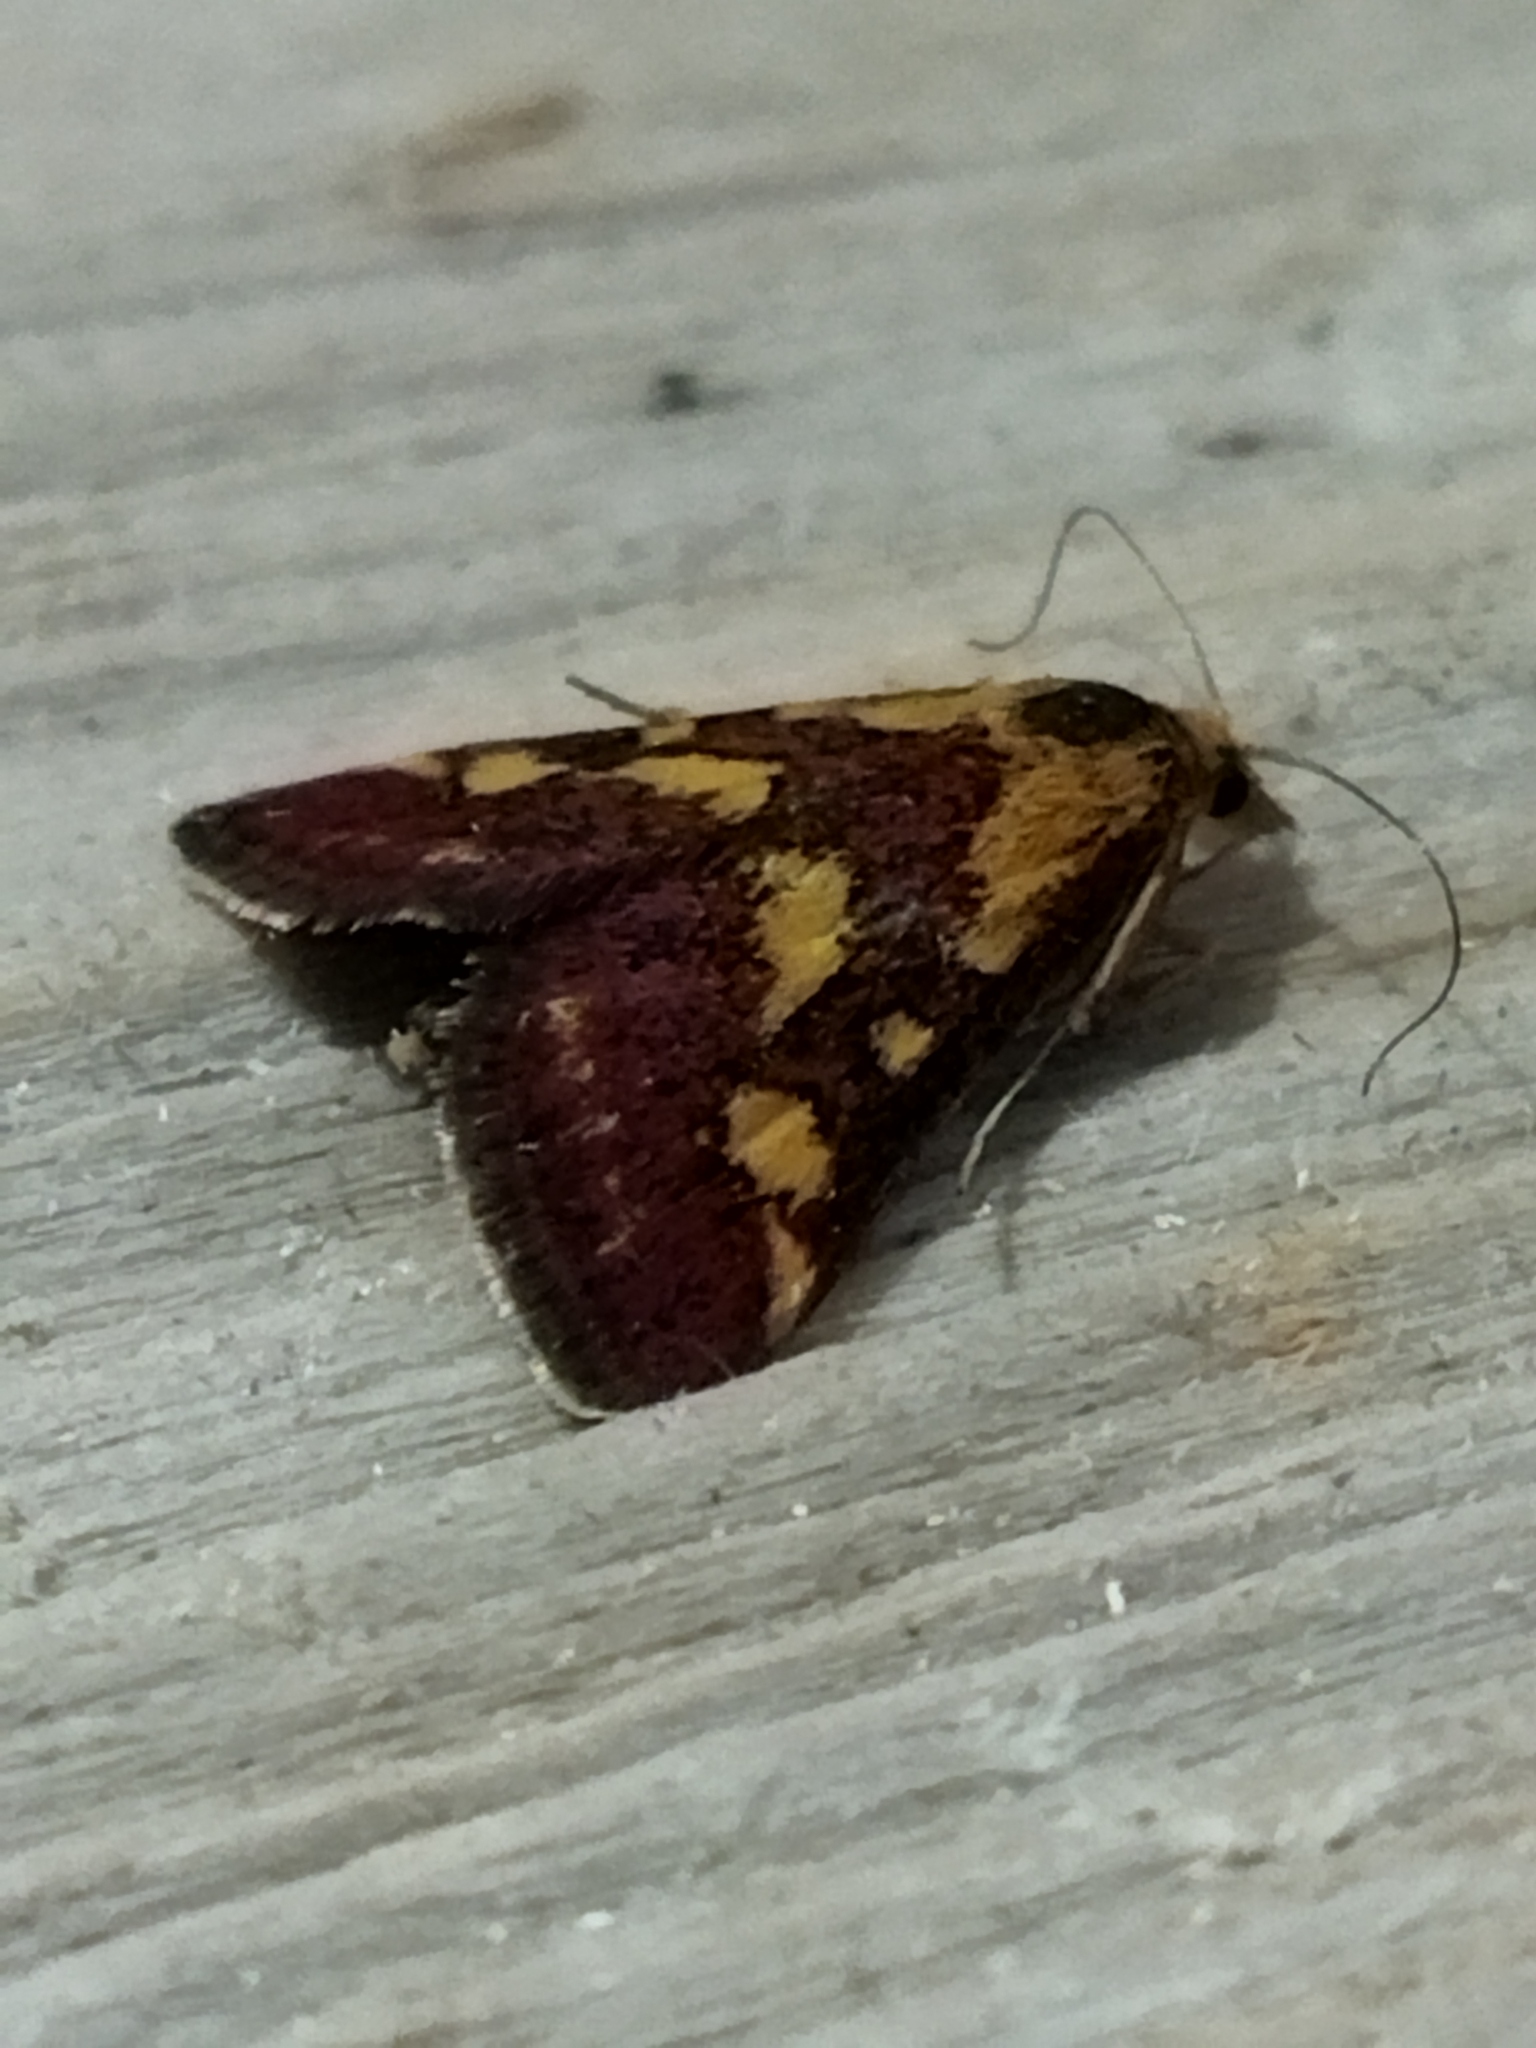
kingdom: Animalia
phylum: Arthropoda
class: Insecta
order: Lepidoptera
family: Crambidae
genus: Pyrausta
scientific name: Pyrausta purpuralis
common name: Common purple & gold
